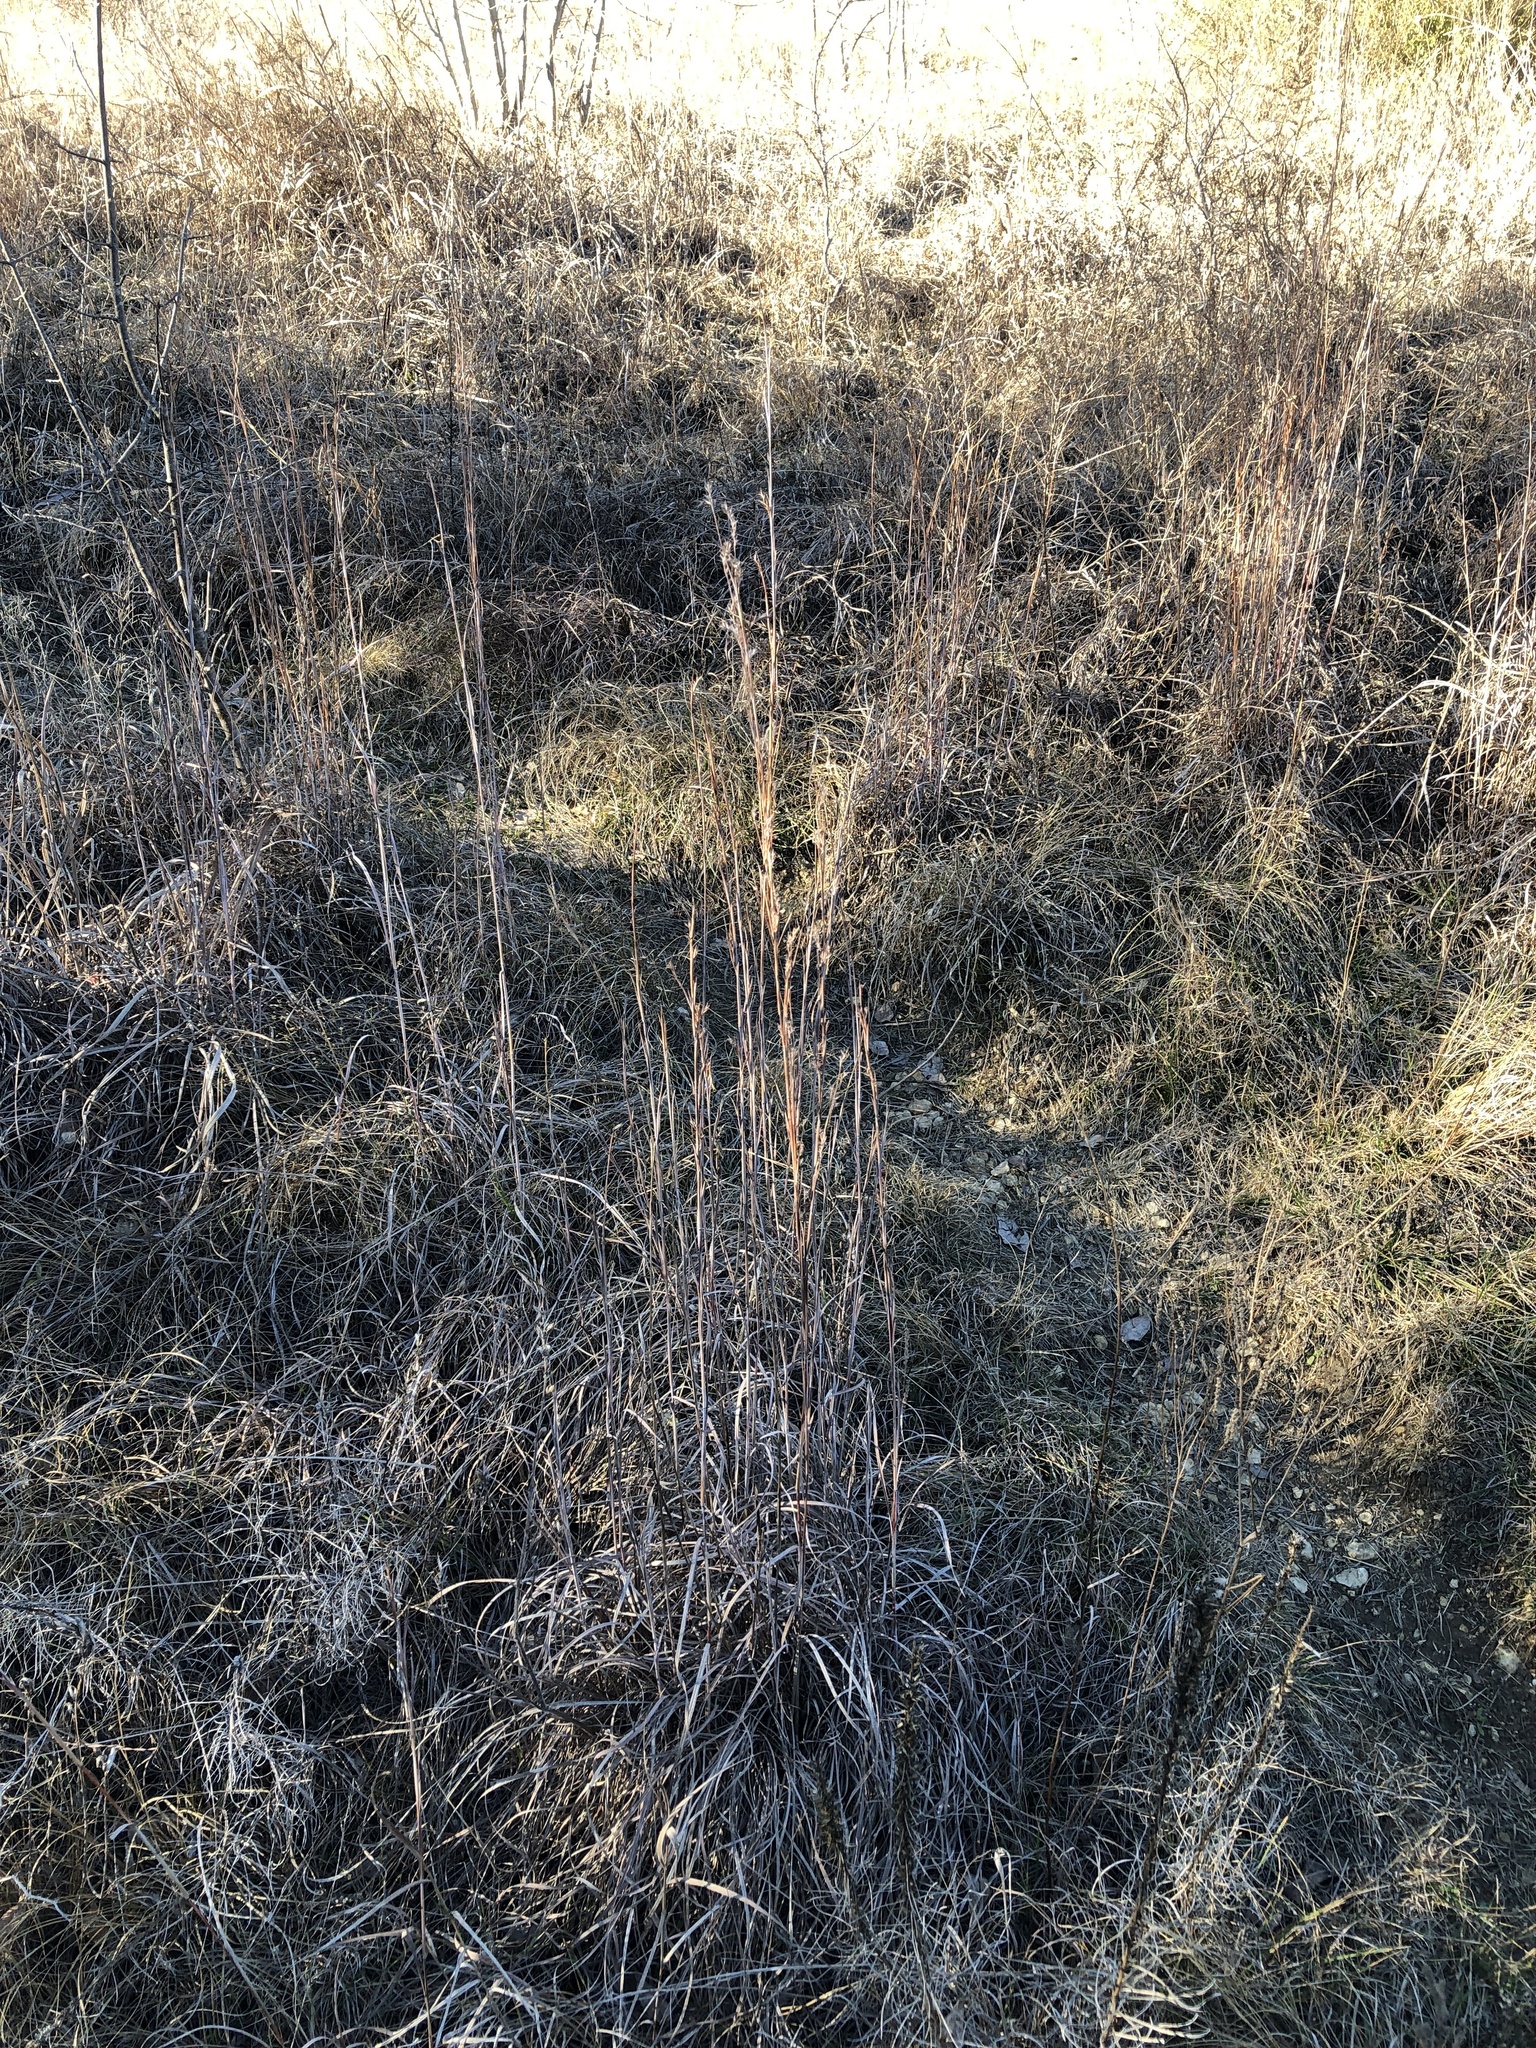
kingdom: Plantae
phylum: Tracheophyta
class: Liliopsida
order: Poales
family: Poaceae
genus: Schizachyrium
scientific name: Schizachyrium scoparium
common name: Little bluestem
